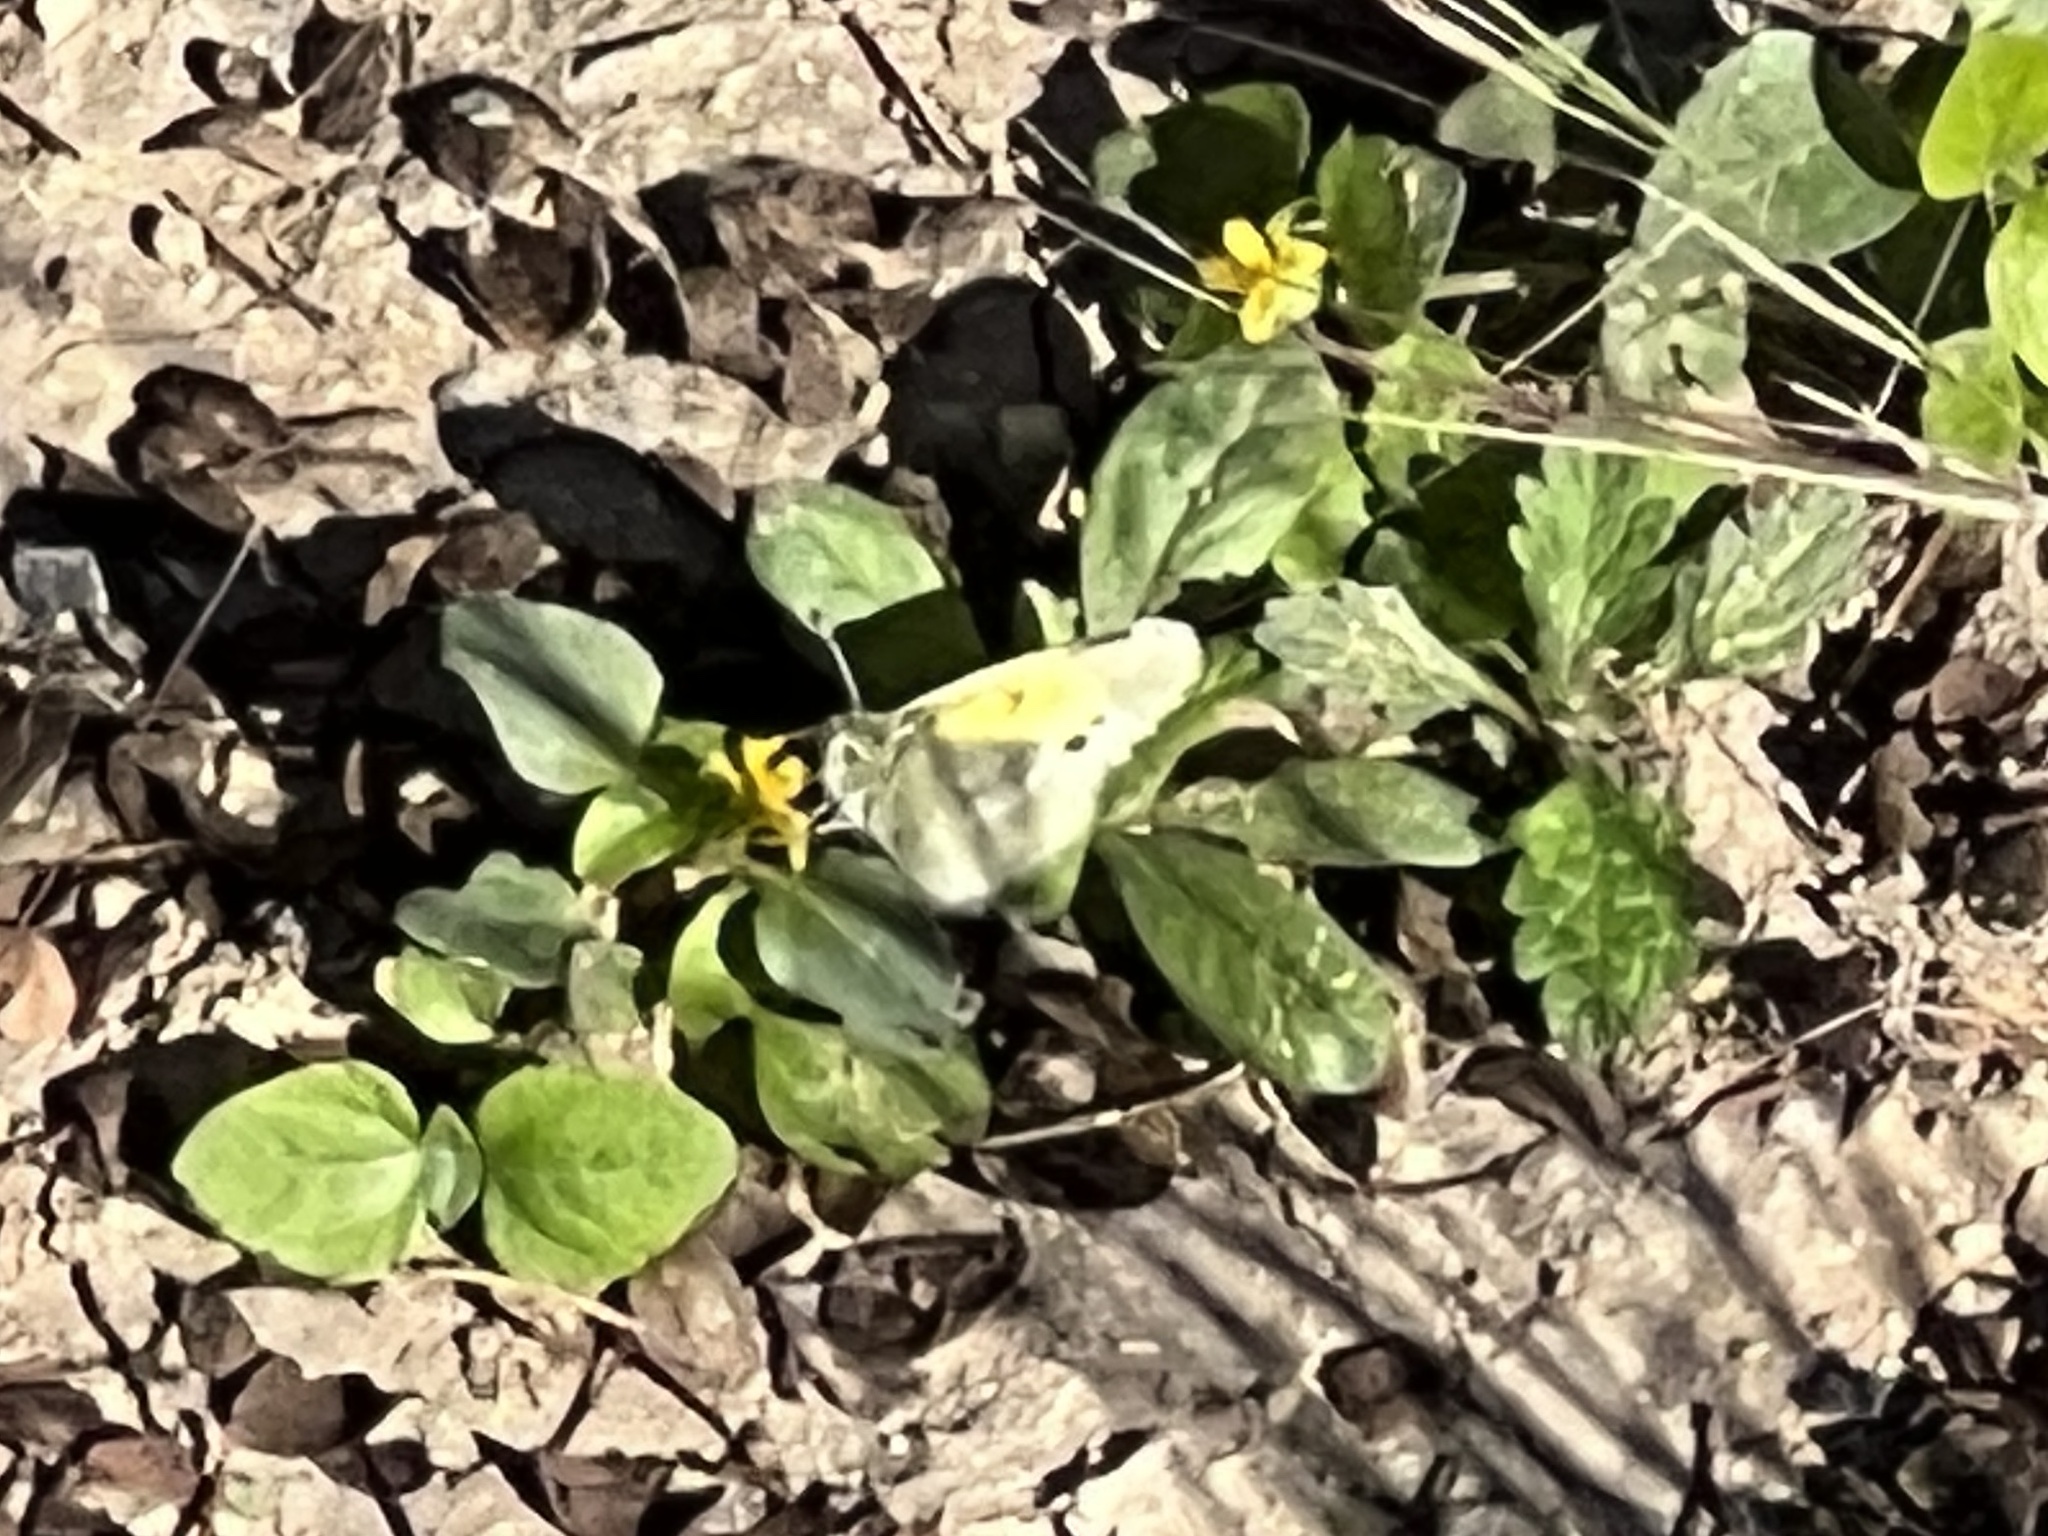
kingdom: Animalia
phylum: Arthropoda
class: Insecta
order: Lepidoptera
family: Pieridae
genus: Nathalis
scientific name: Nathalis iole
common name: Dainty sulphur
